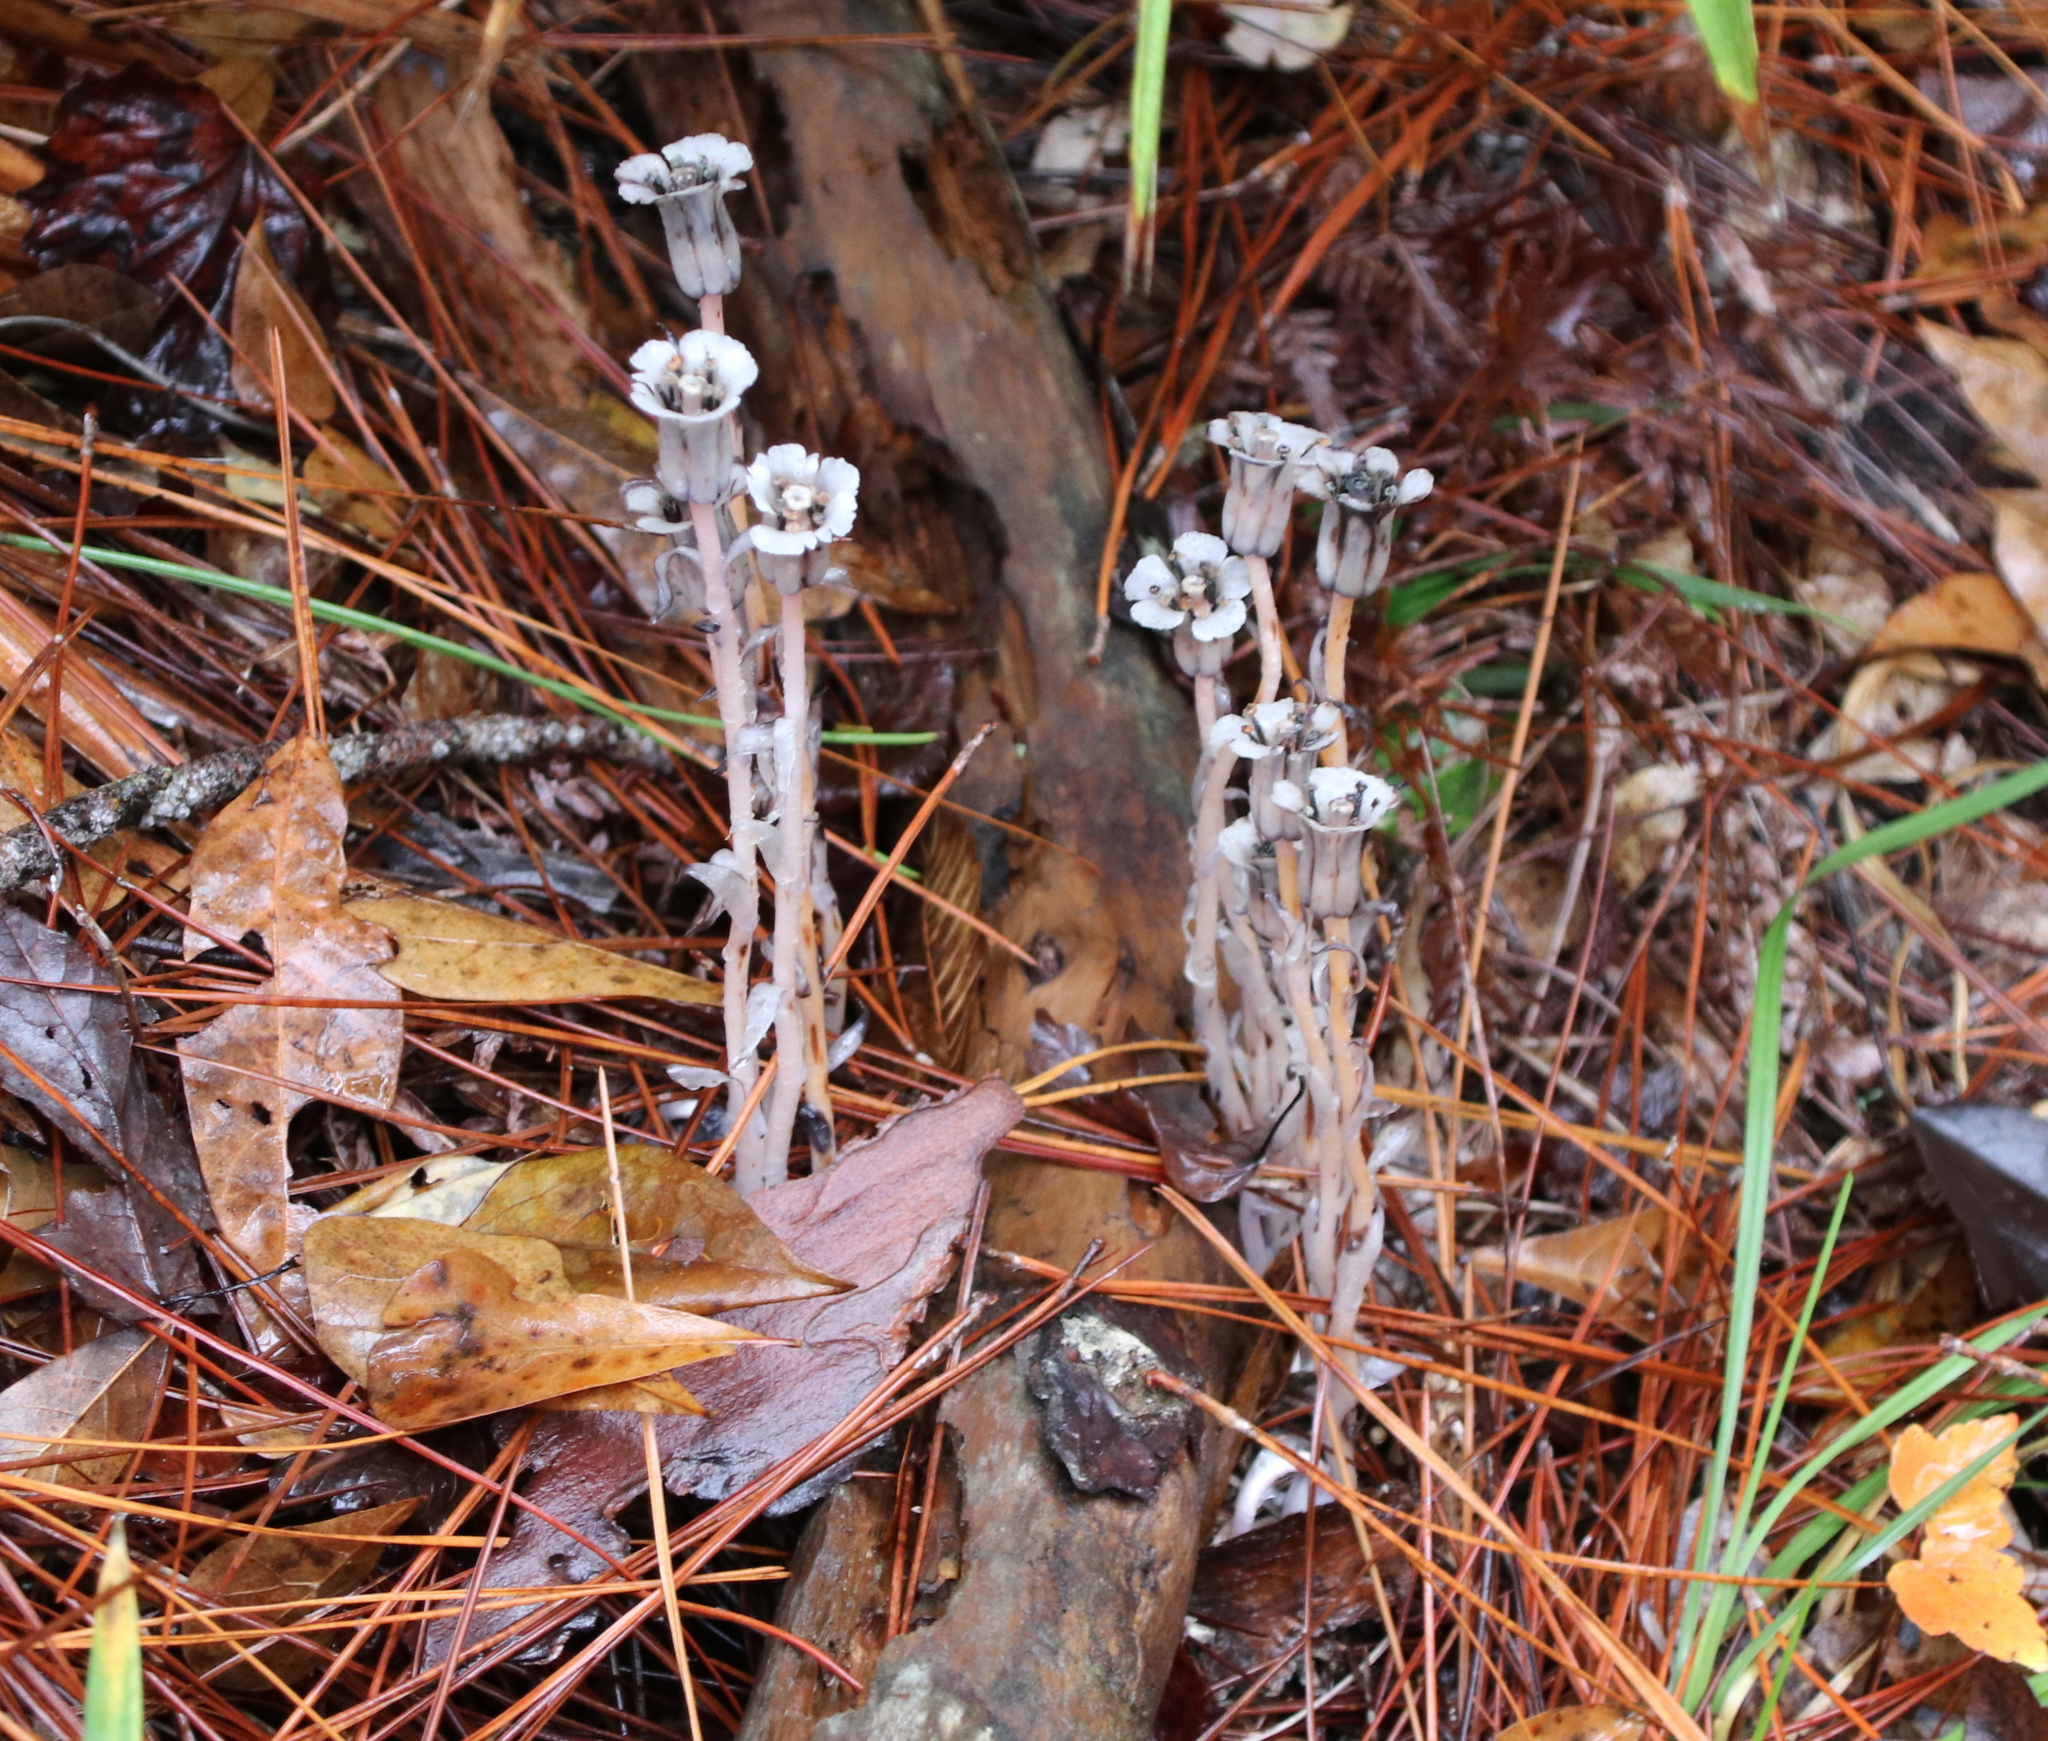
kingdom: Plantae
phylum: Tracheophyta
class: Magnoliopsida
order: Ericales
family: Ericaceae
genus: Monotropa
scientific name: Monotropa uniflora
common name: Convulsion root
